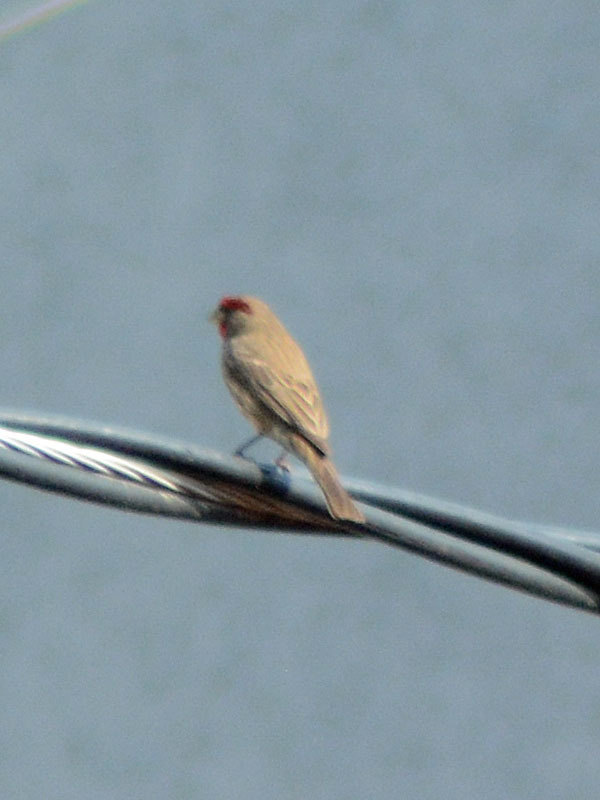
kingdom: Animalia
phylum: Chordata
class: Aves
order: Passeriformes
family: Fringillidae
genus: Haemorhous
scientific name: Haemorhous mexicanus
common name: House finch
